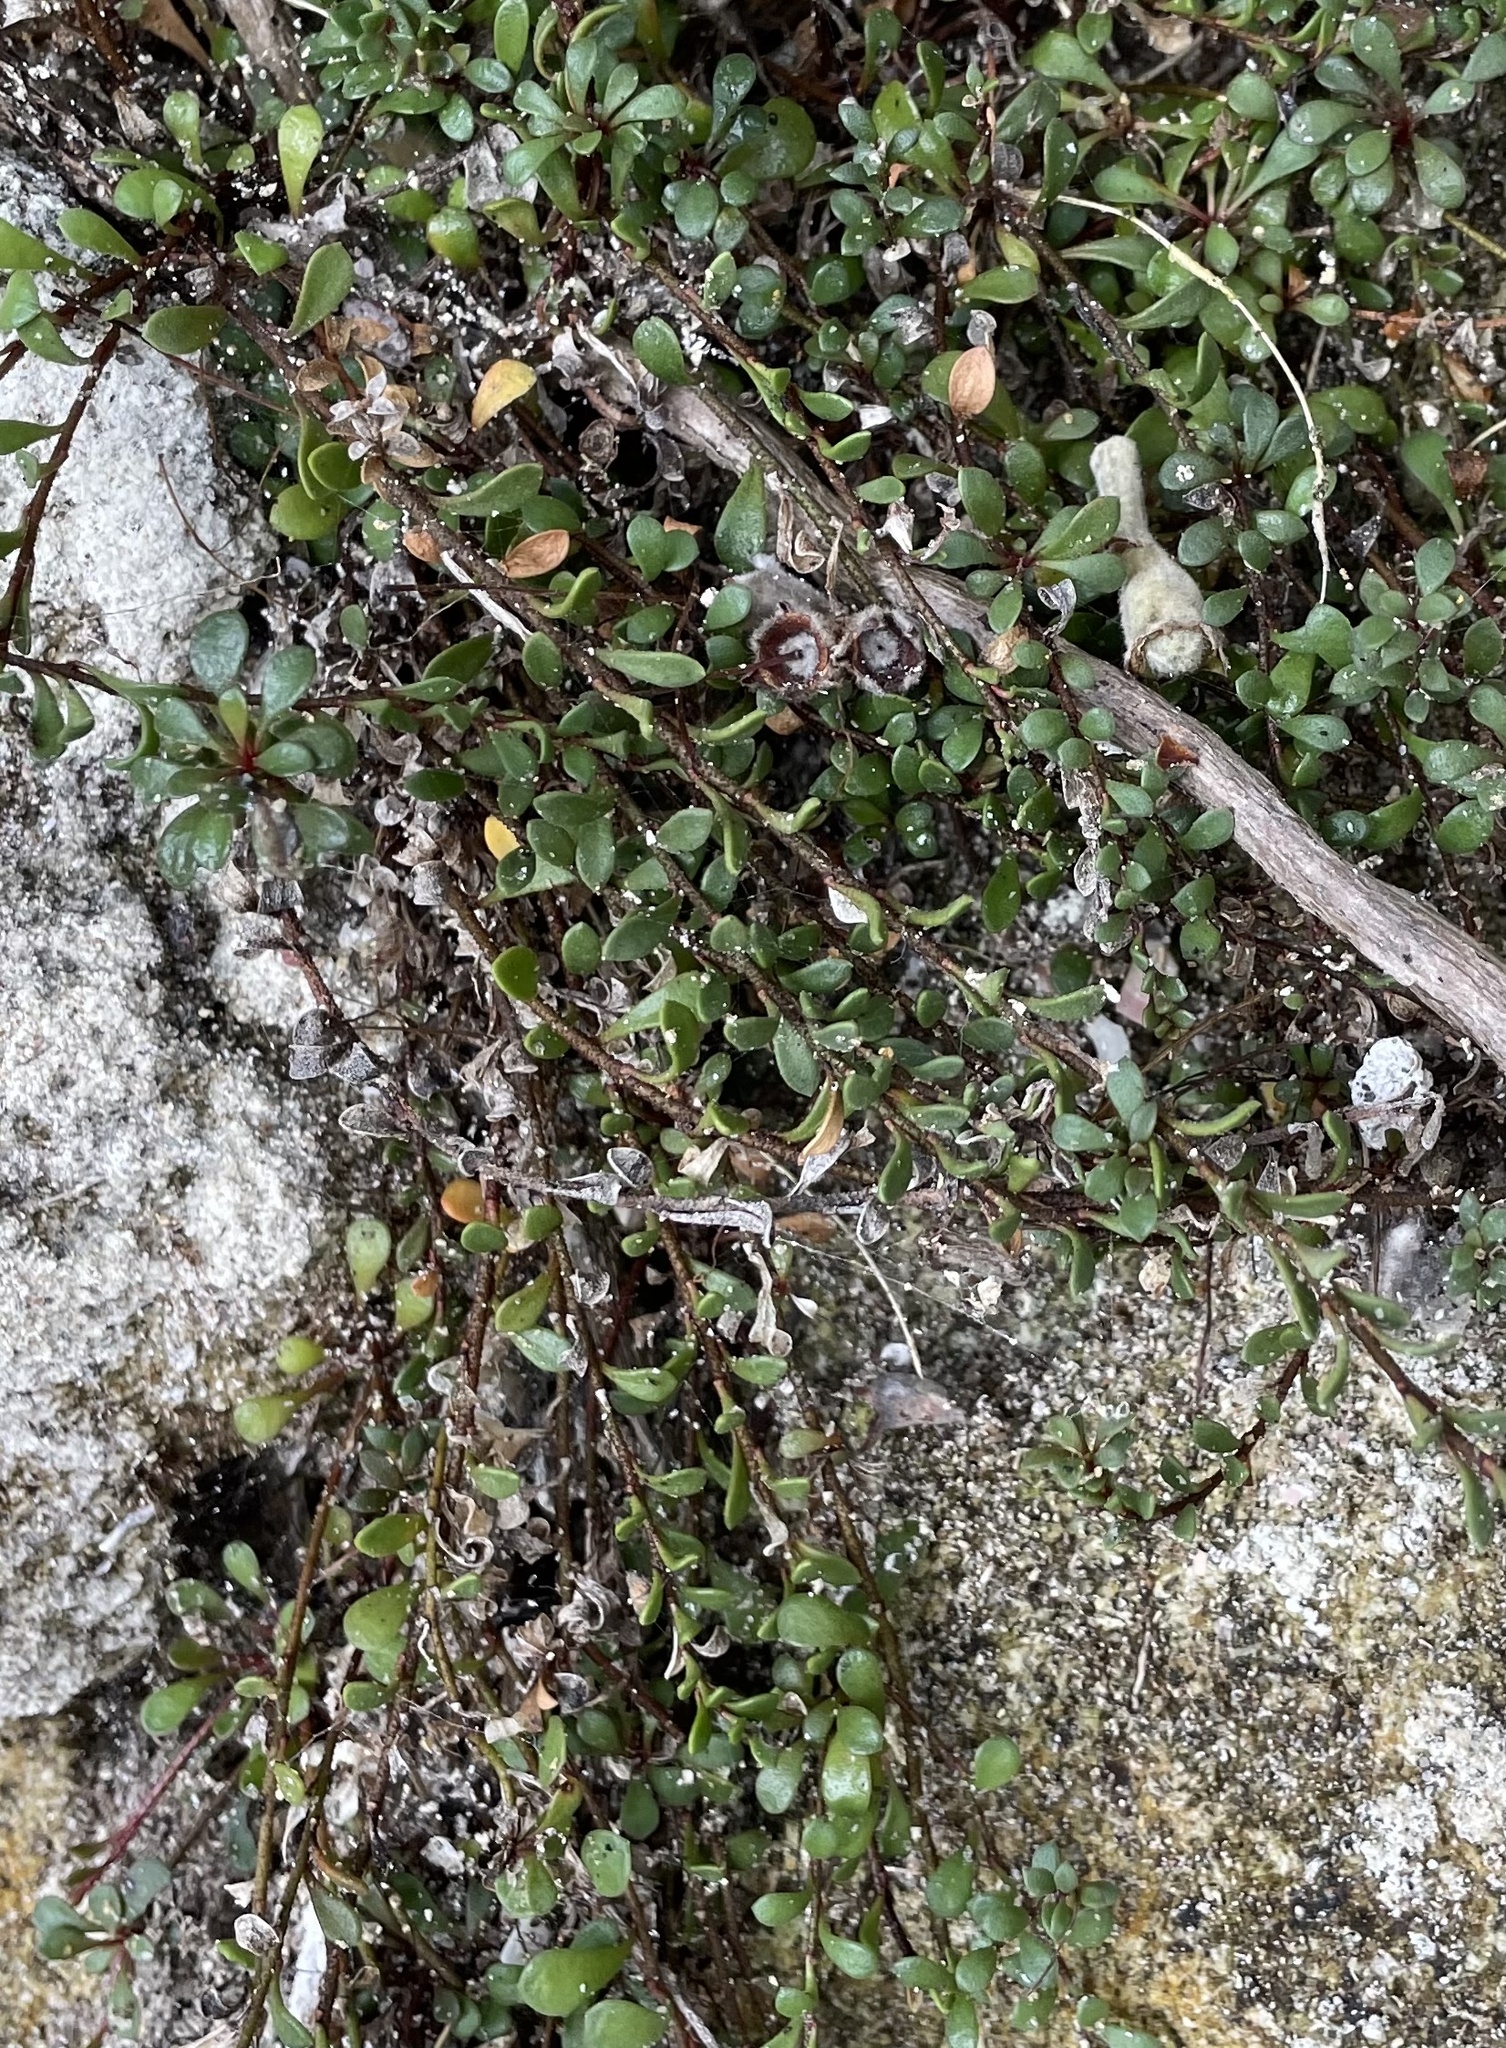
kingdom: Plantae
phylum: Tracheophyta
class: Magnoliopsida
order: Ericales
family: Primulaceae
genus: Samolus
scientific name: Samolus repens
